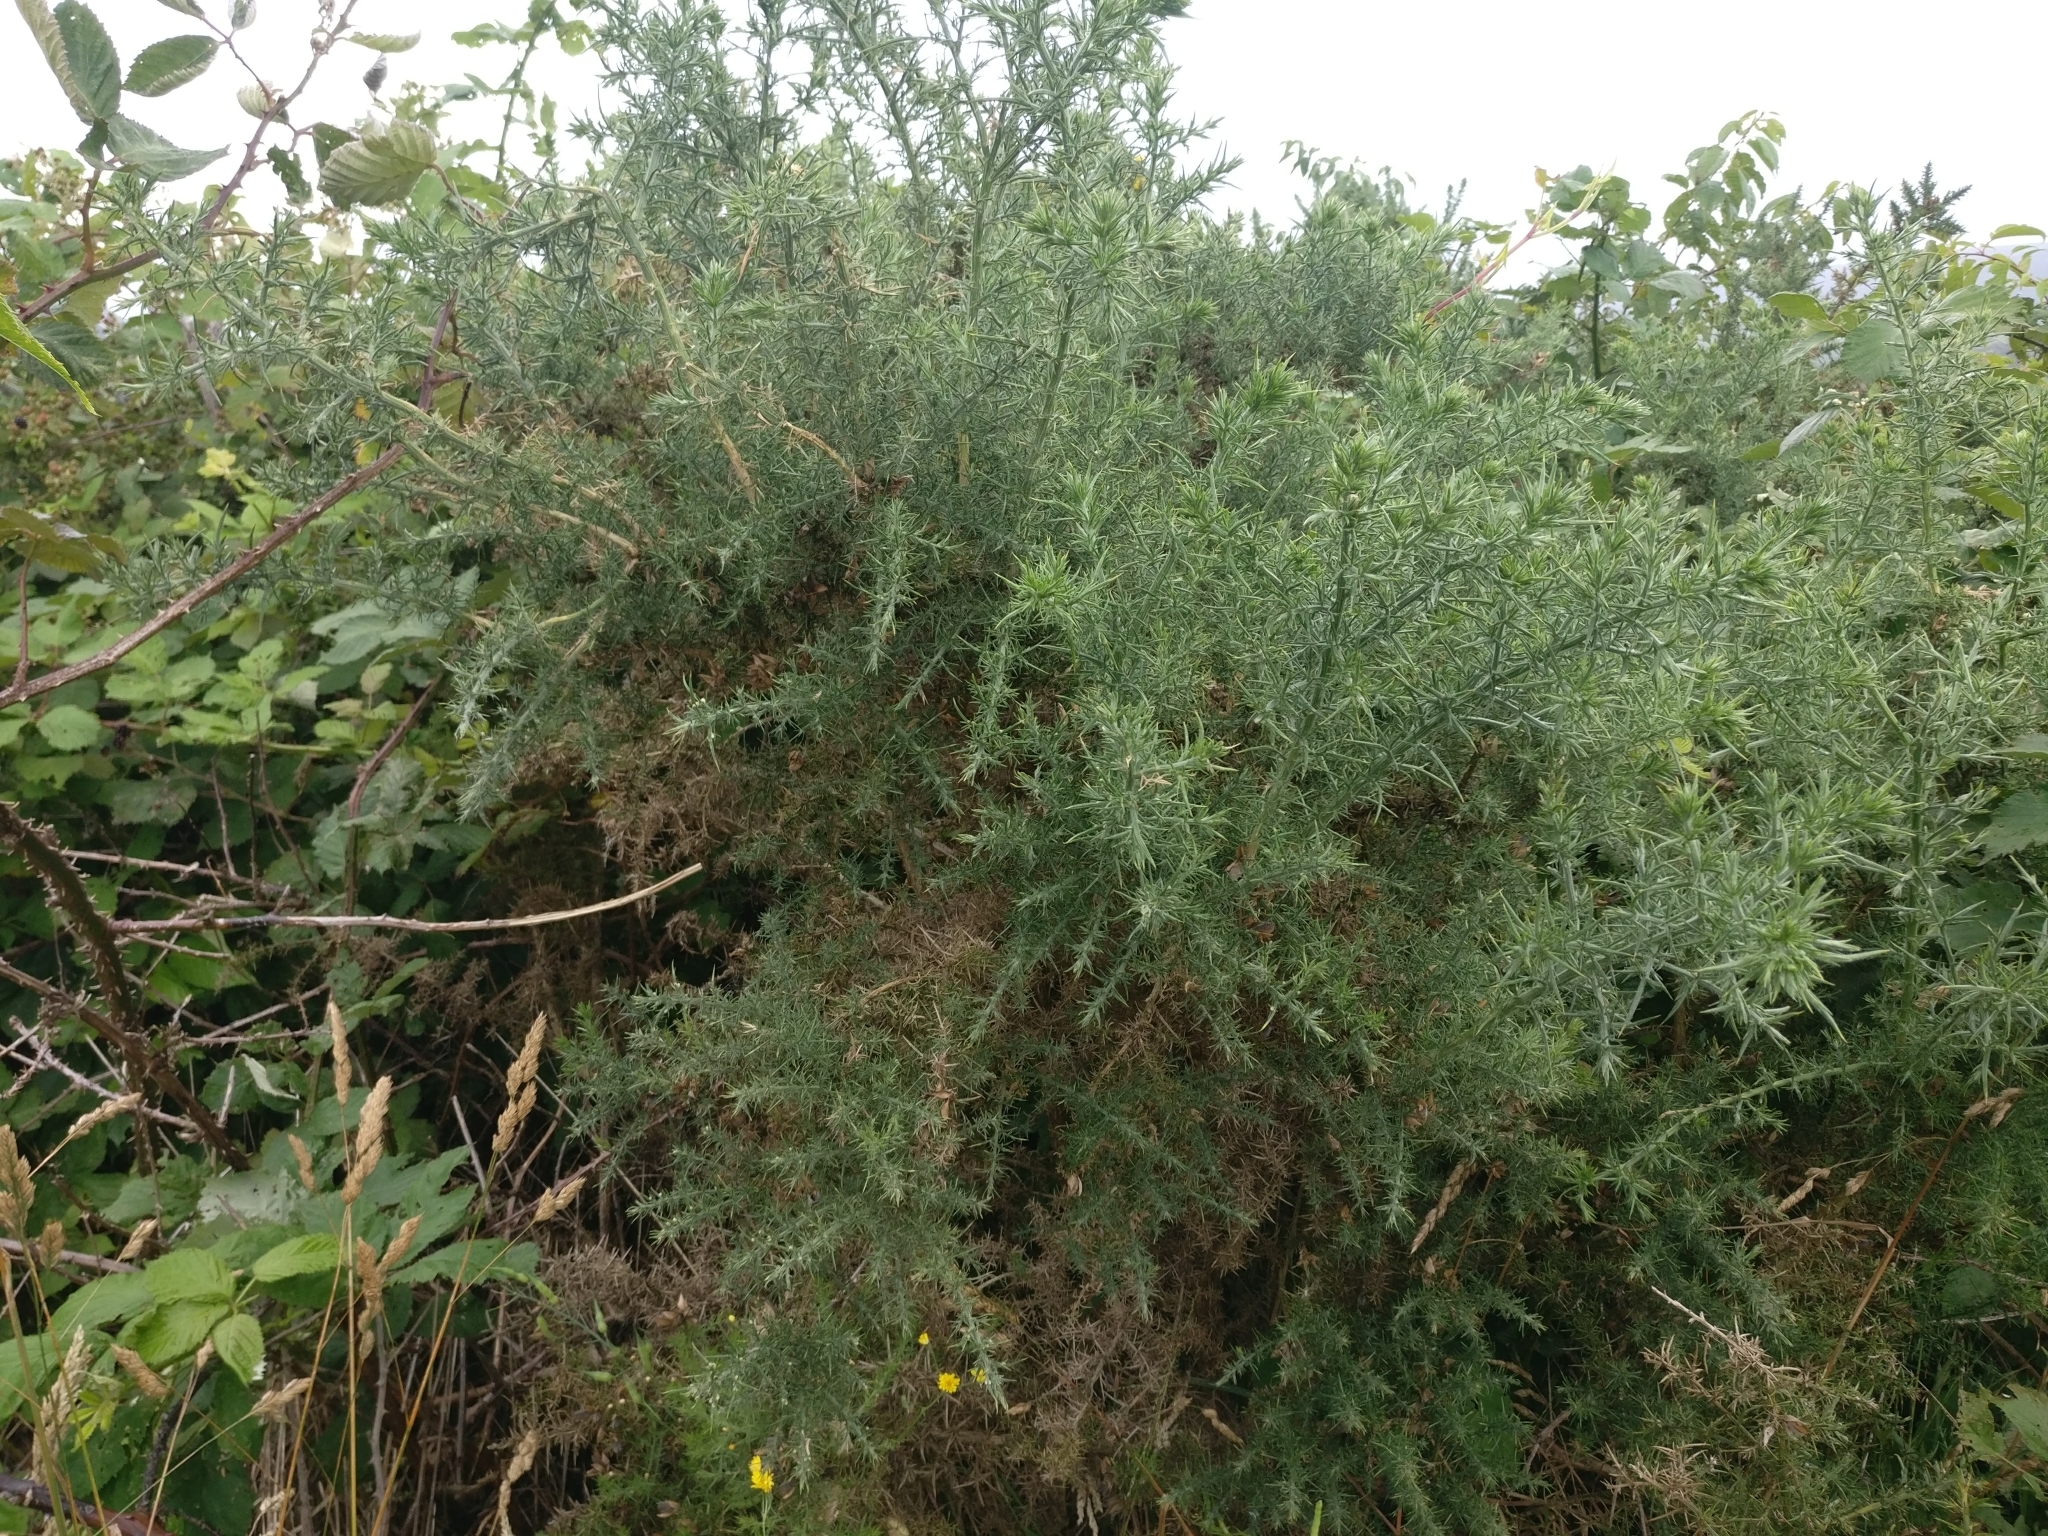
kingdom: Plantae
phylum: Tracheophyta
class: Magnoliopsida
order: Fabales
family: Fabaceae
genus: Ulex
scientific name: Ulex europaeus
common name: Common gorse
